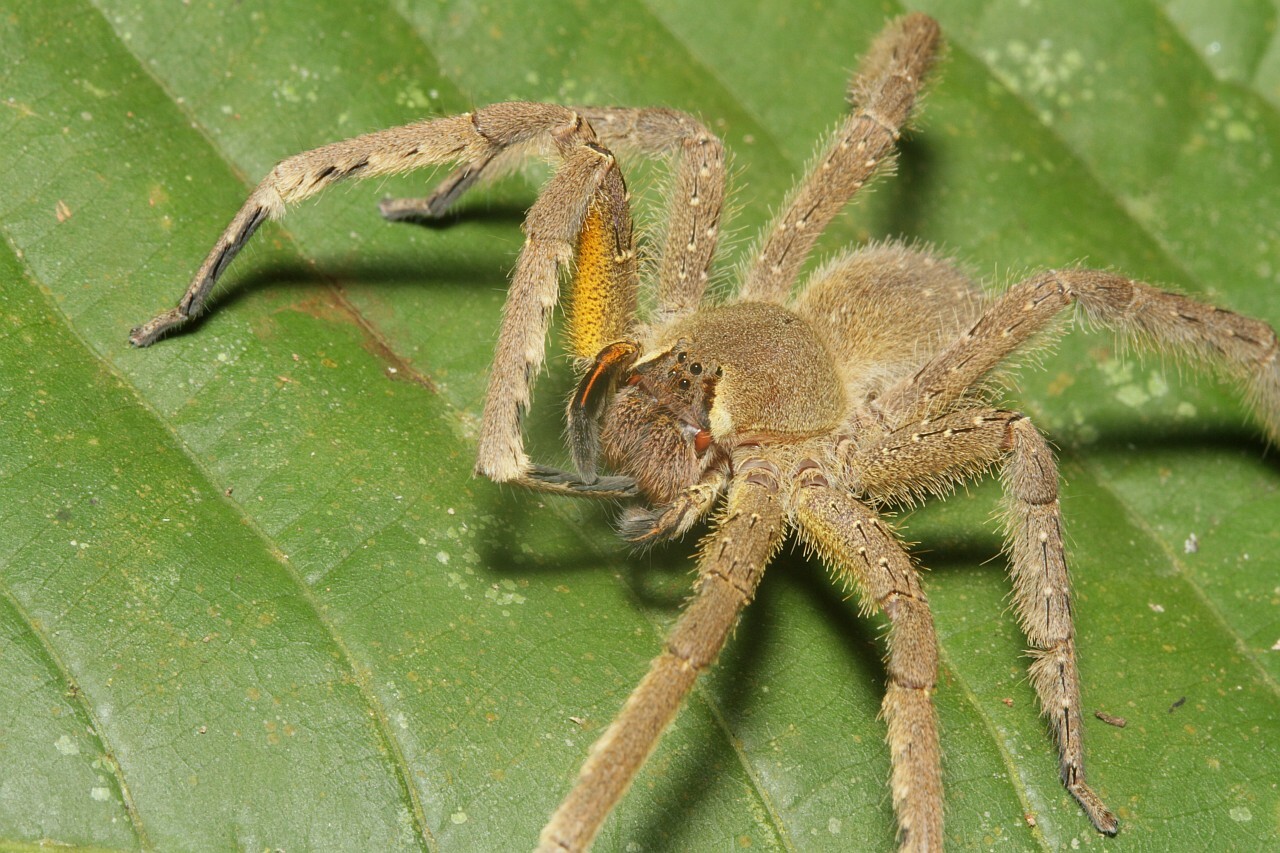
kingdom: Animalia
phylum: Arthropoda
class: Arachnida
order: Araneae
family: Ctenidae
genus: Phoneutria
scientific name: Phoneutria boliviensis
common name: Wandering spiders
